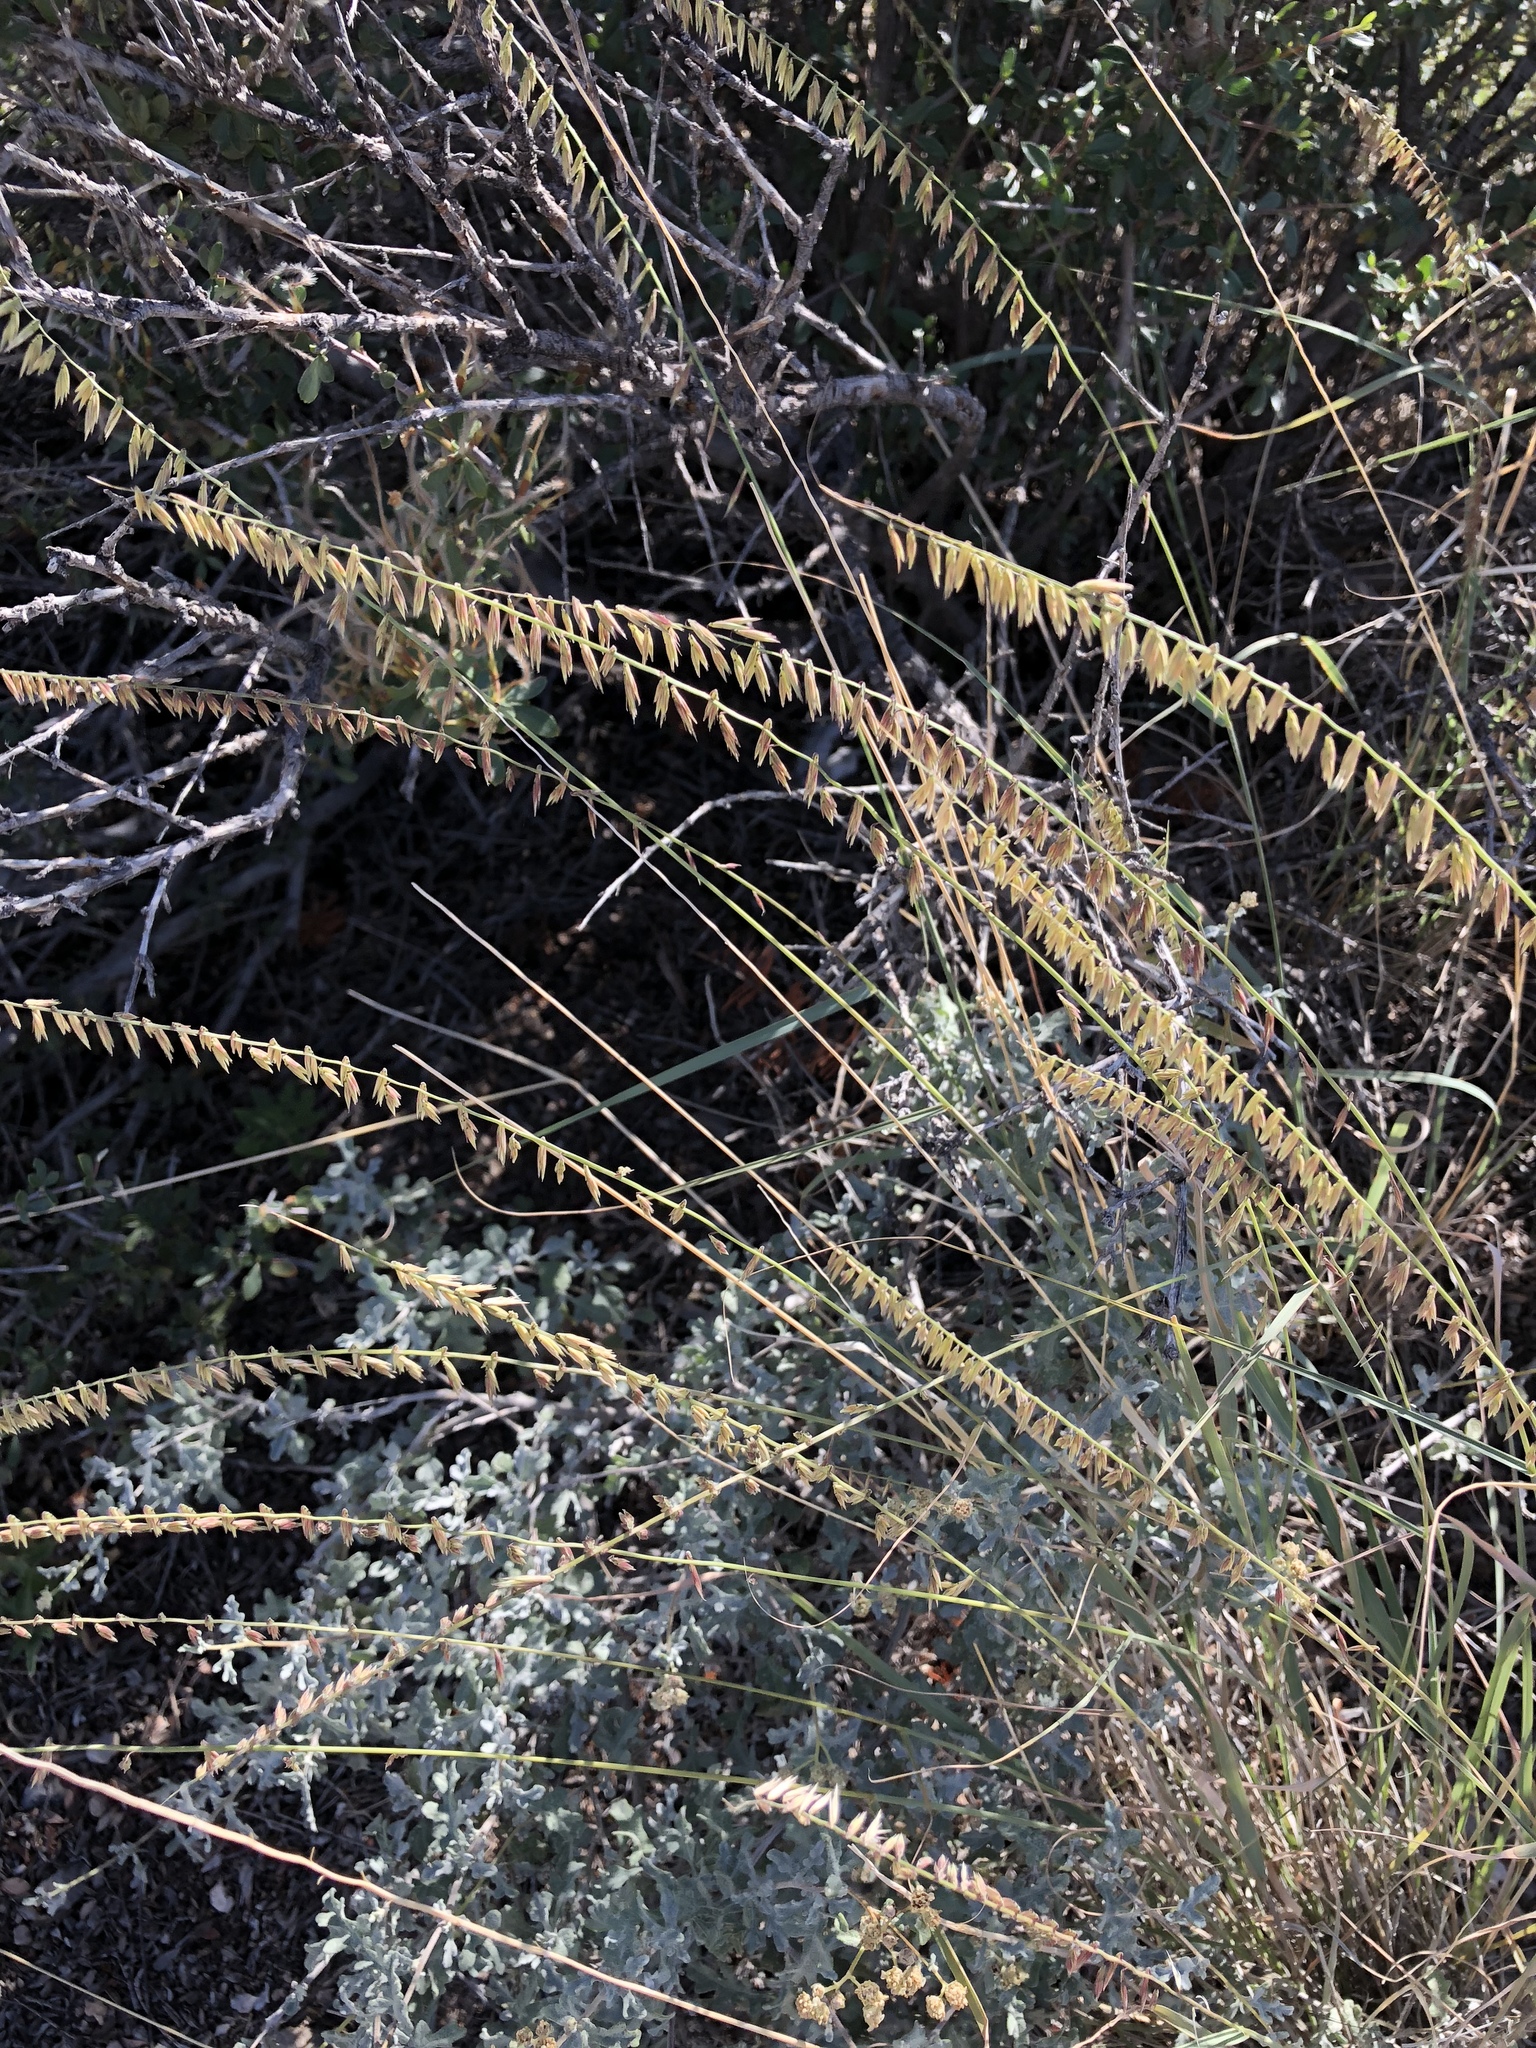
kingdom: Plantae
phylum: Tracheophyta
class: Liliopsida
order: Poales
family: Poaceae
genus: Bouteloua
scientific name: Bouteloua curtipendula
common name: Side-oats grama
